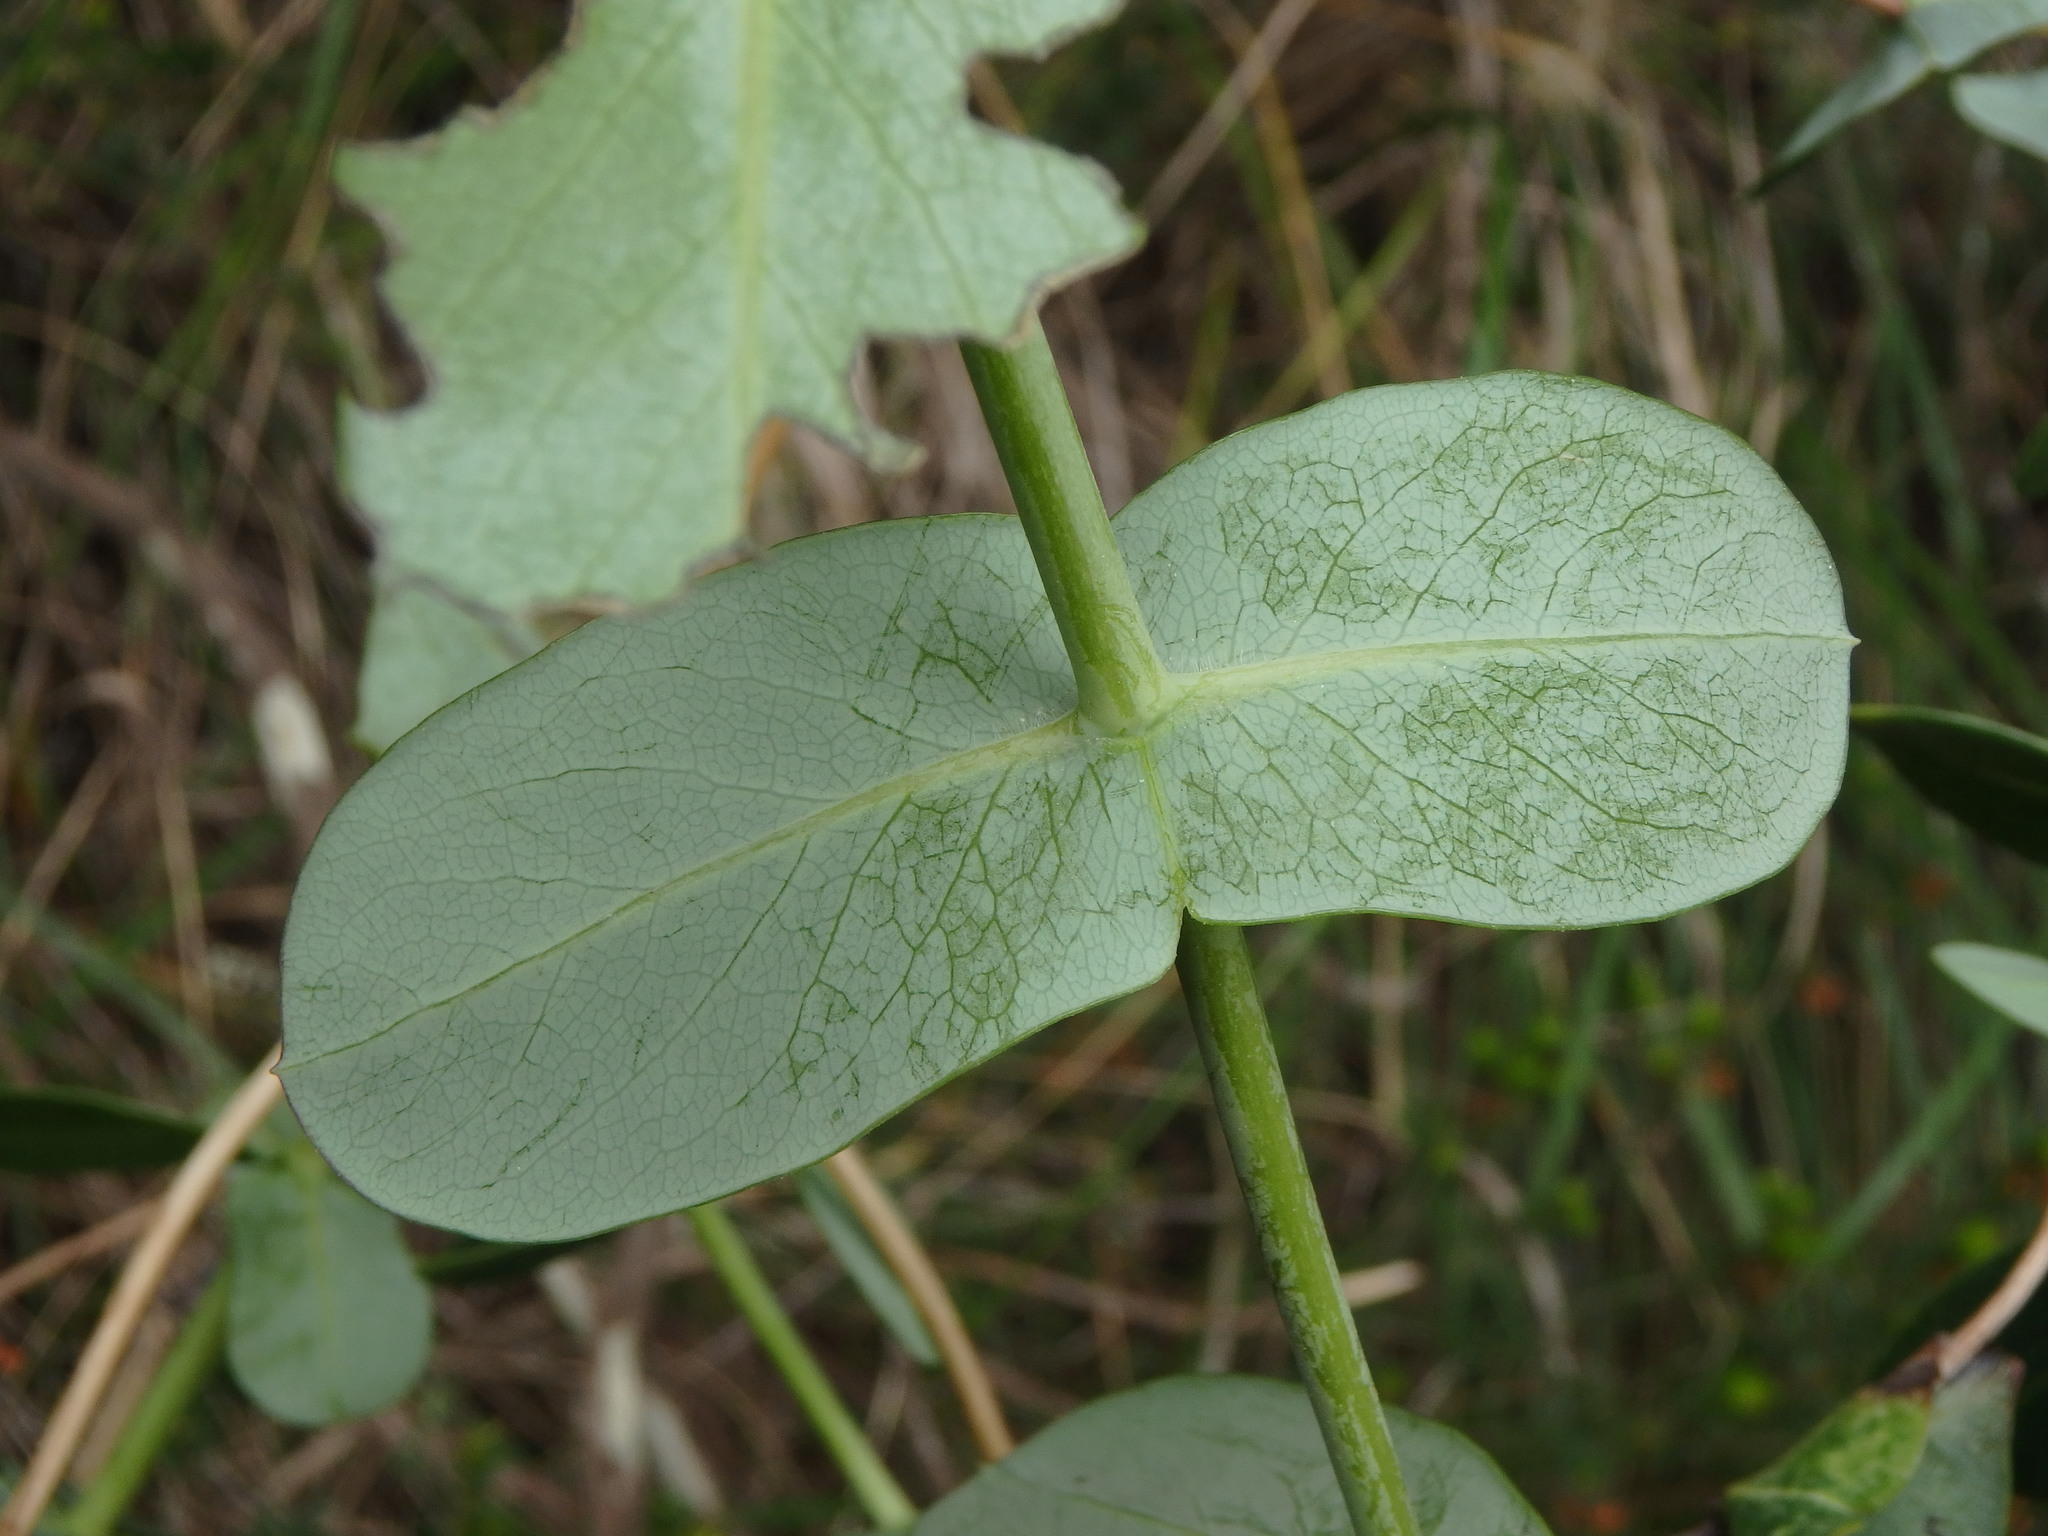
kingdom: Plantae
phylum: Tracheophyta
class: Magnoliopsida
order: Dipsacales
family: Caprifoliaceae
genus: Lonicera
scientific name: Lonicera implexa
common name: Minorca honeysuckle
